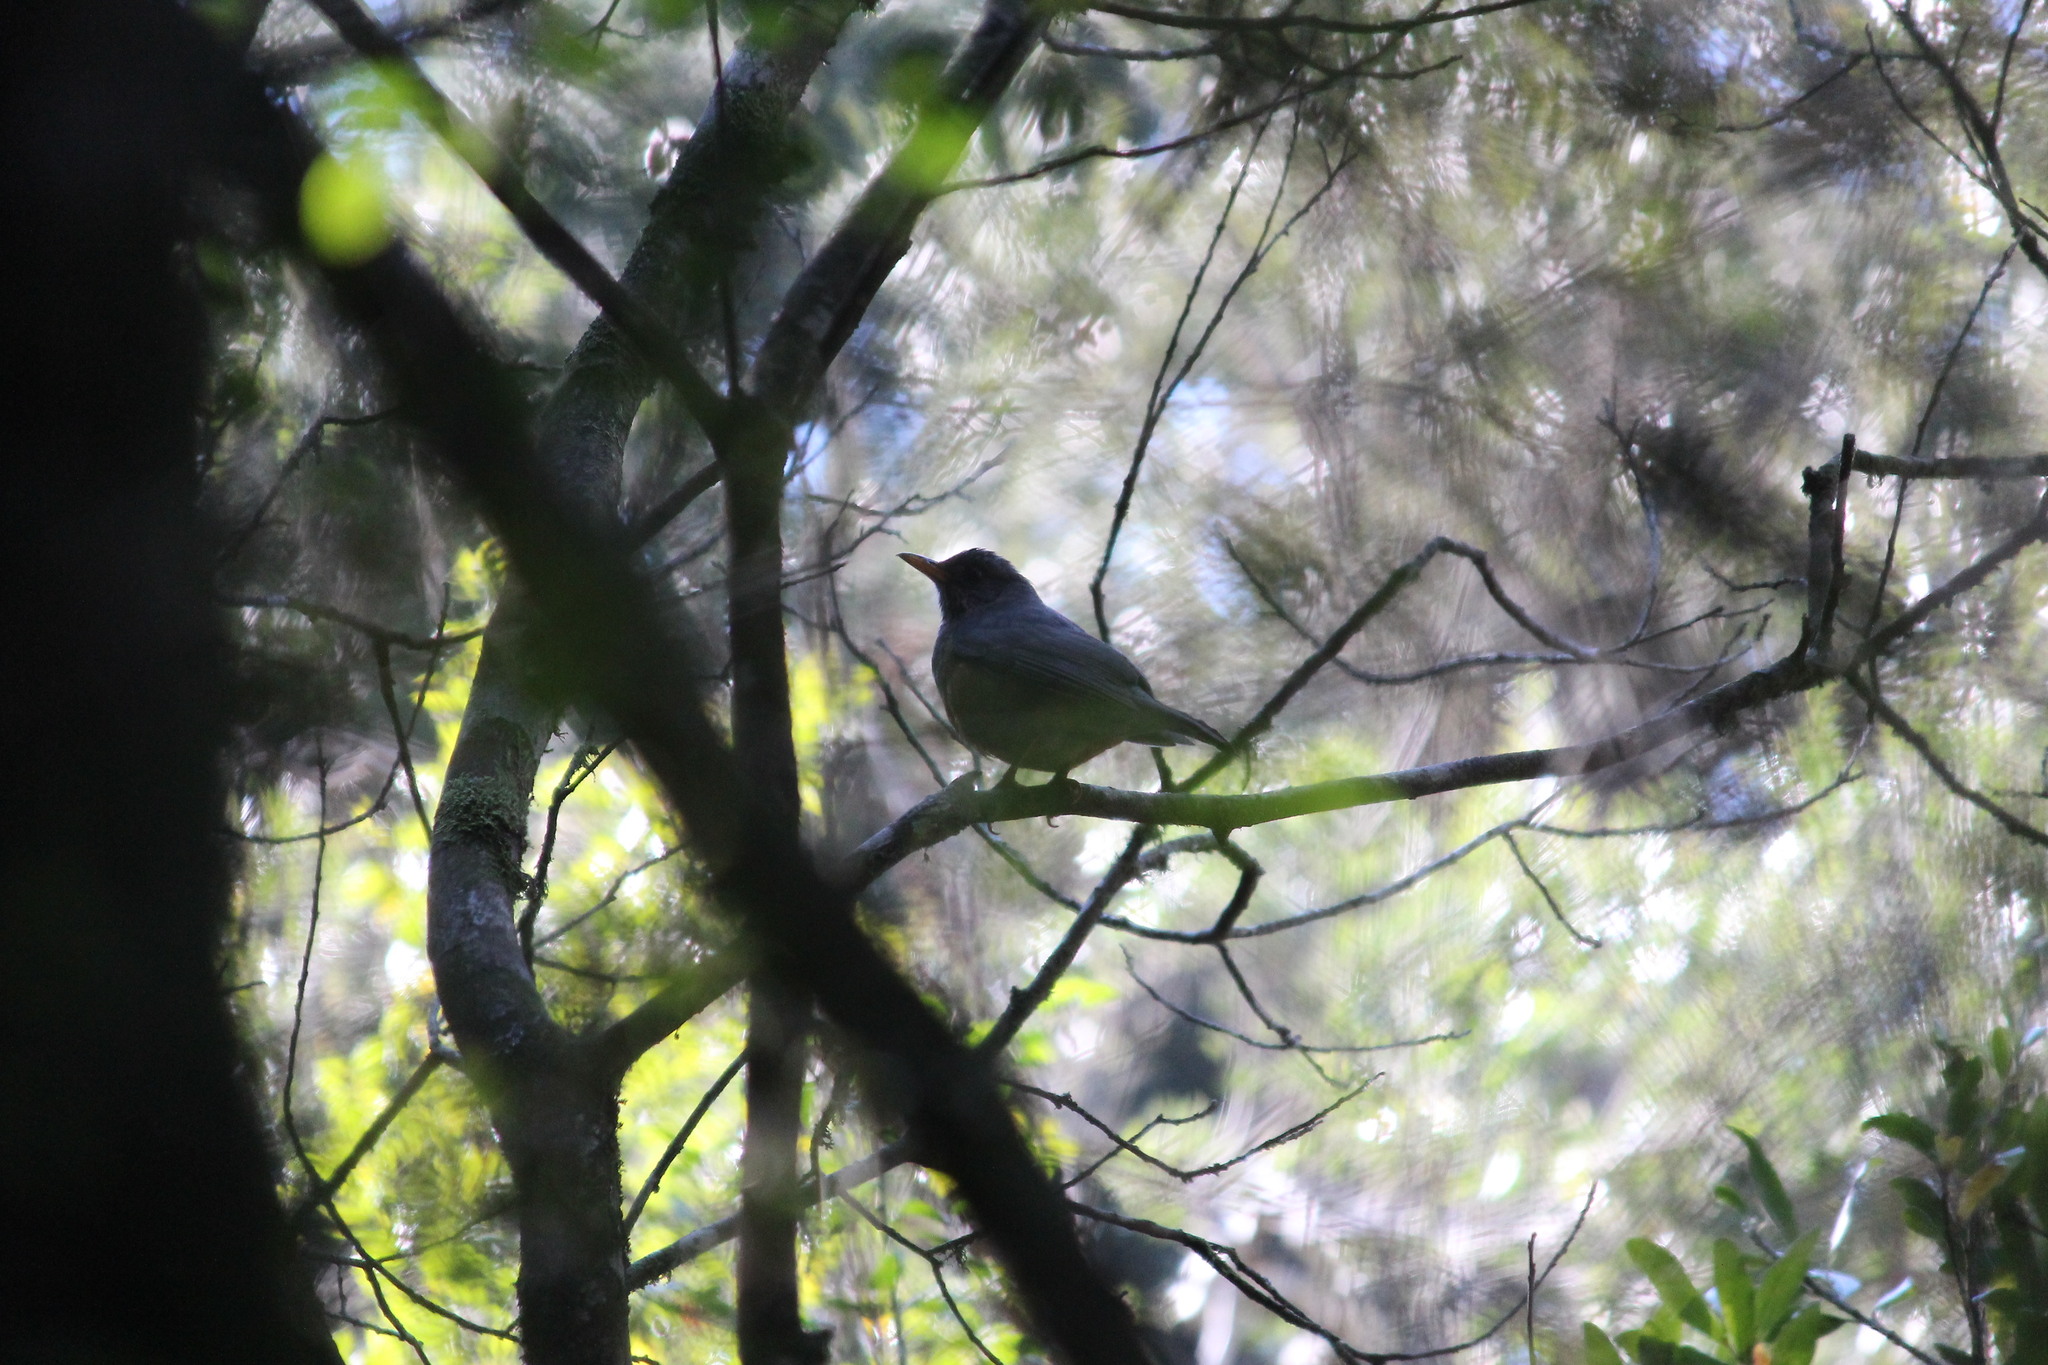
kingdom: Animalia
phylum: Chordata
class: Aves
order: Passeriformes
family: Turdidae
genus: Turdus
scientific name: Turdus olivaceus
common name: Olive thrush
